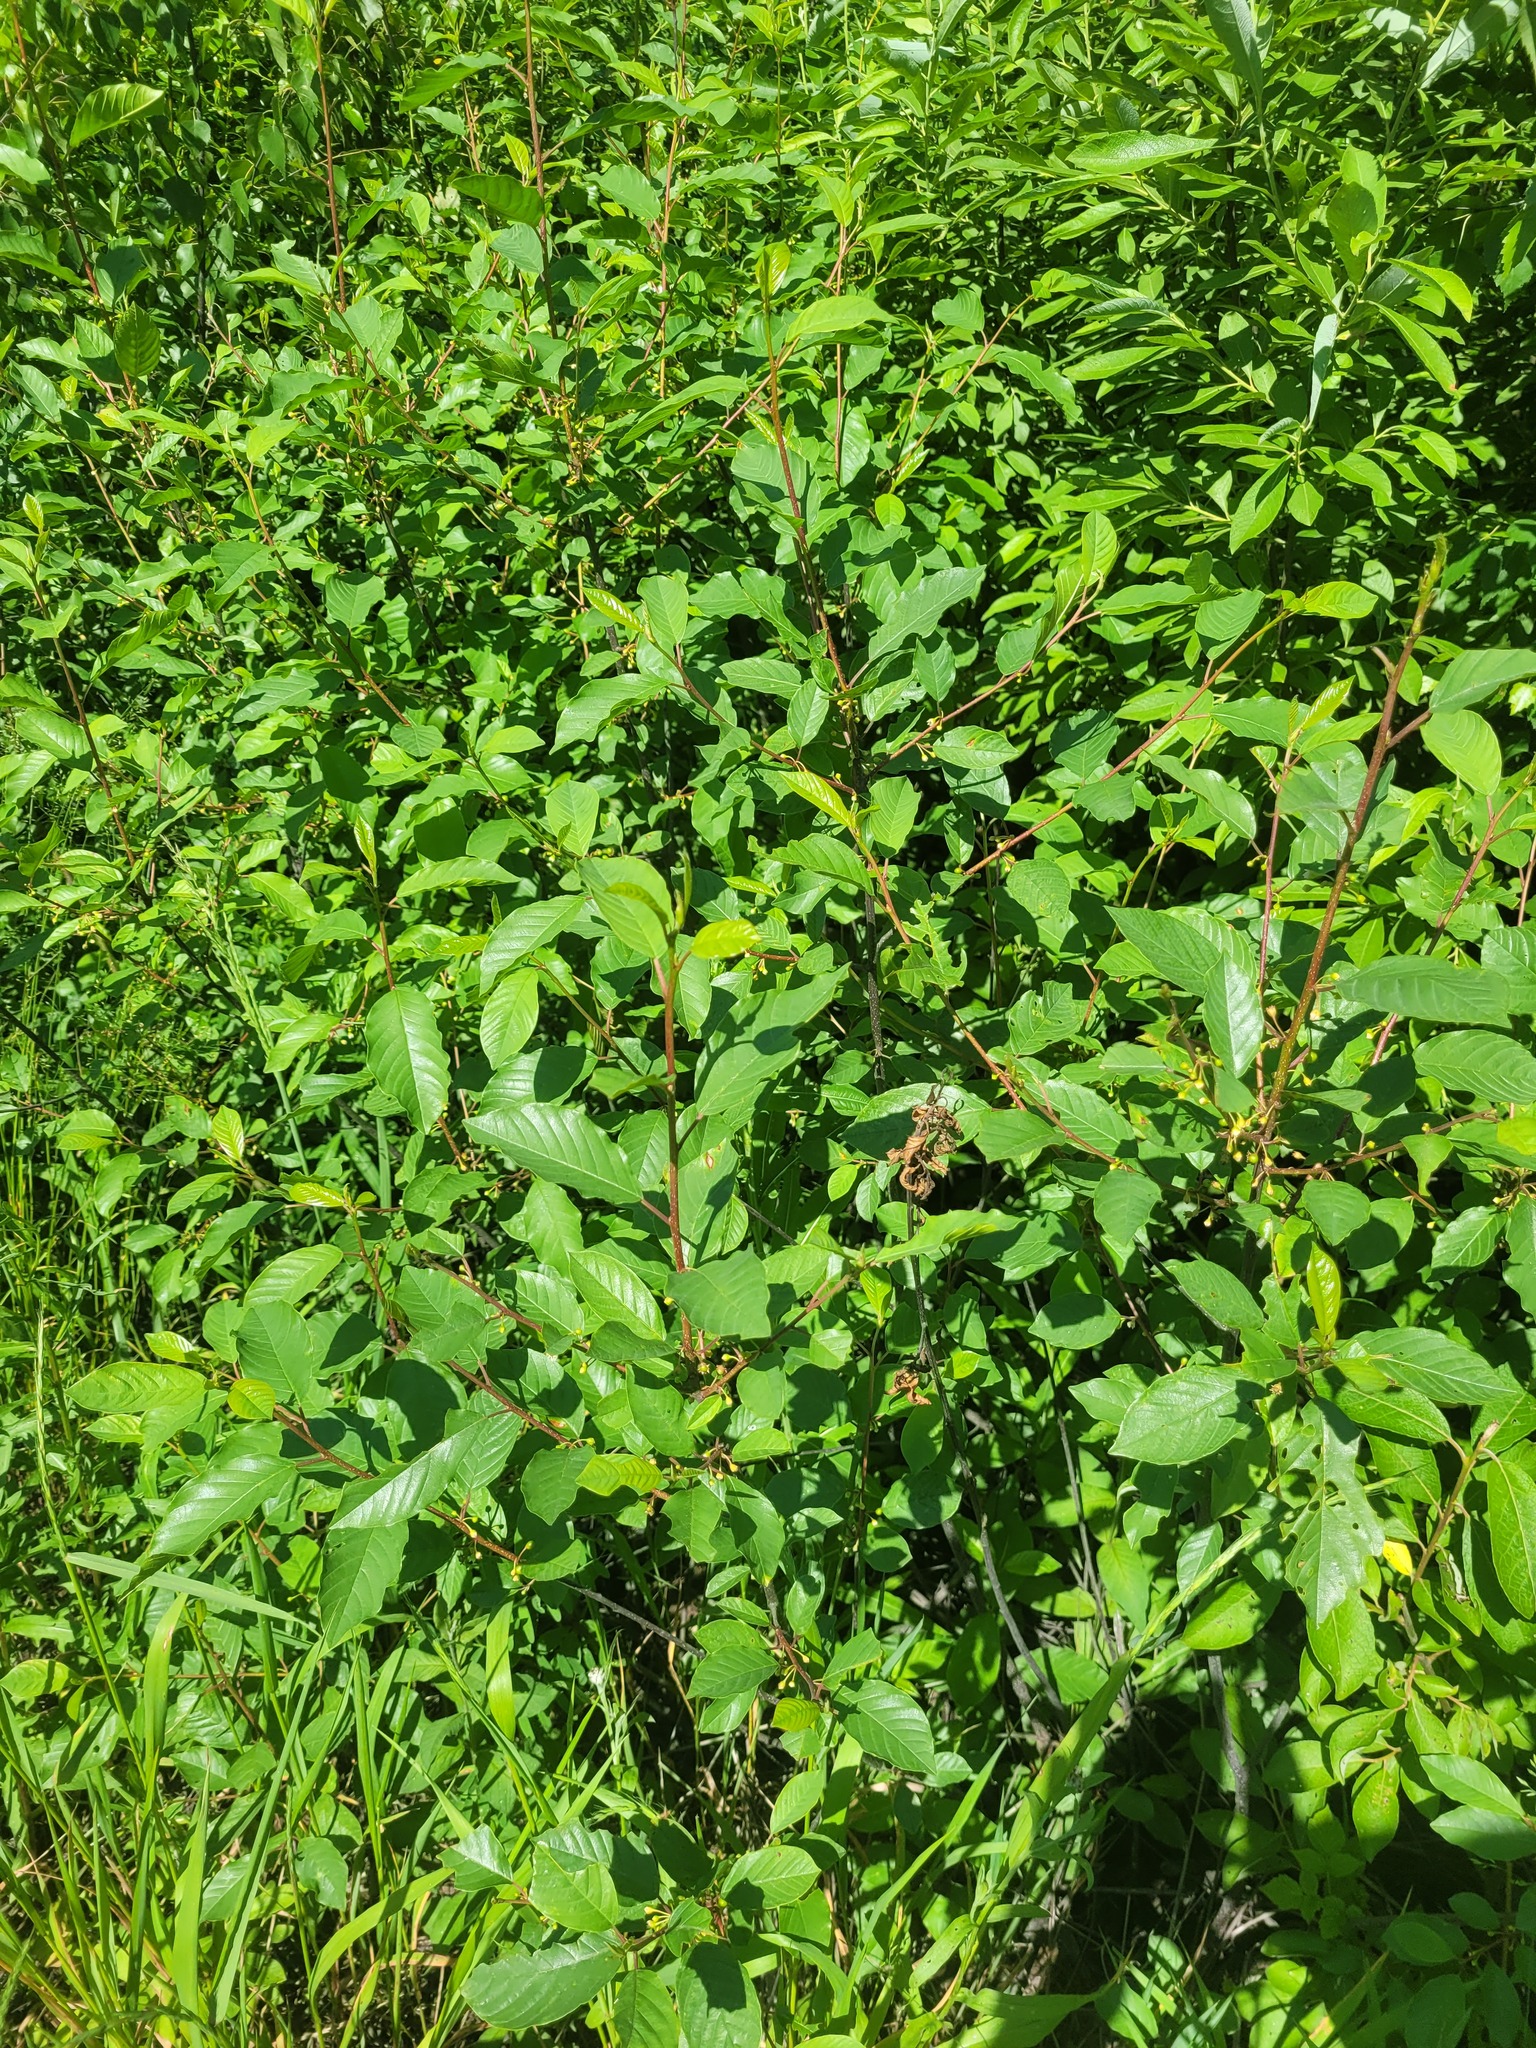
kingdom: Plantae
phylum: Tracheophyta
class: Magnoliopsida
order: Rosales
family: Rhamnaceae
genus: Frangula
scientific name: Frangula alnus
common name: Alder buckthorn
